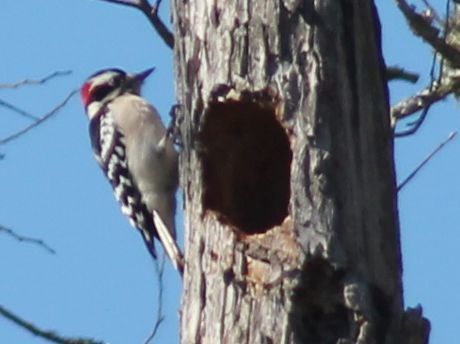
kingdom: Animalia
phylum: Chordata
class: Aves
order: Piciformes
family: Picidae
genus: Dryobates
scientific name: Dryobates pubescens
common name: Downy woodpecker
